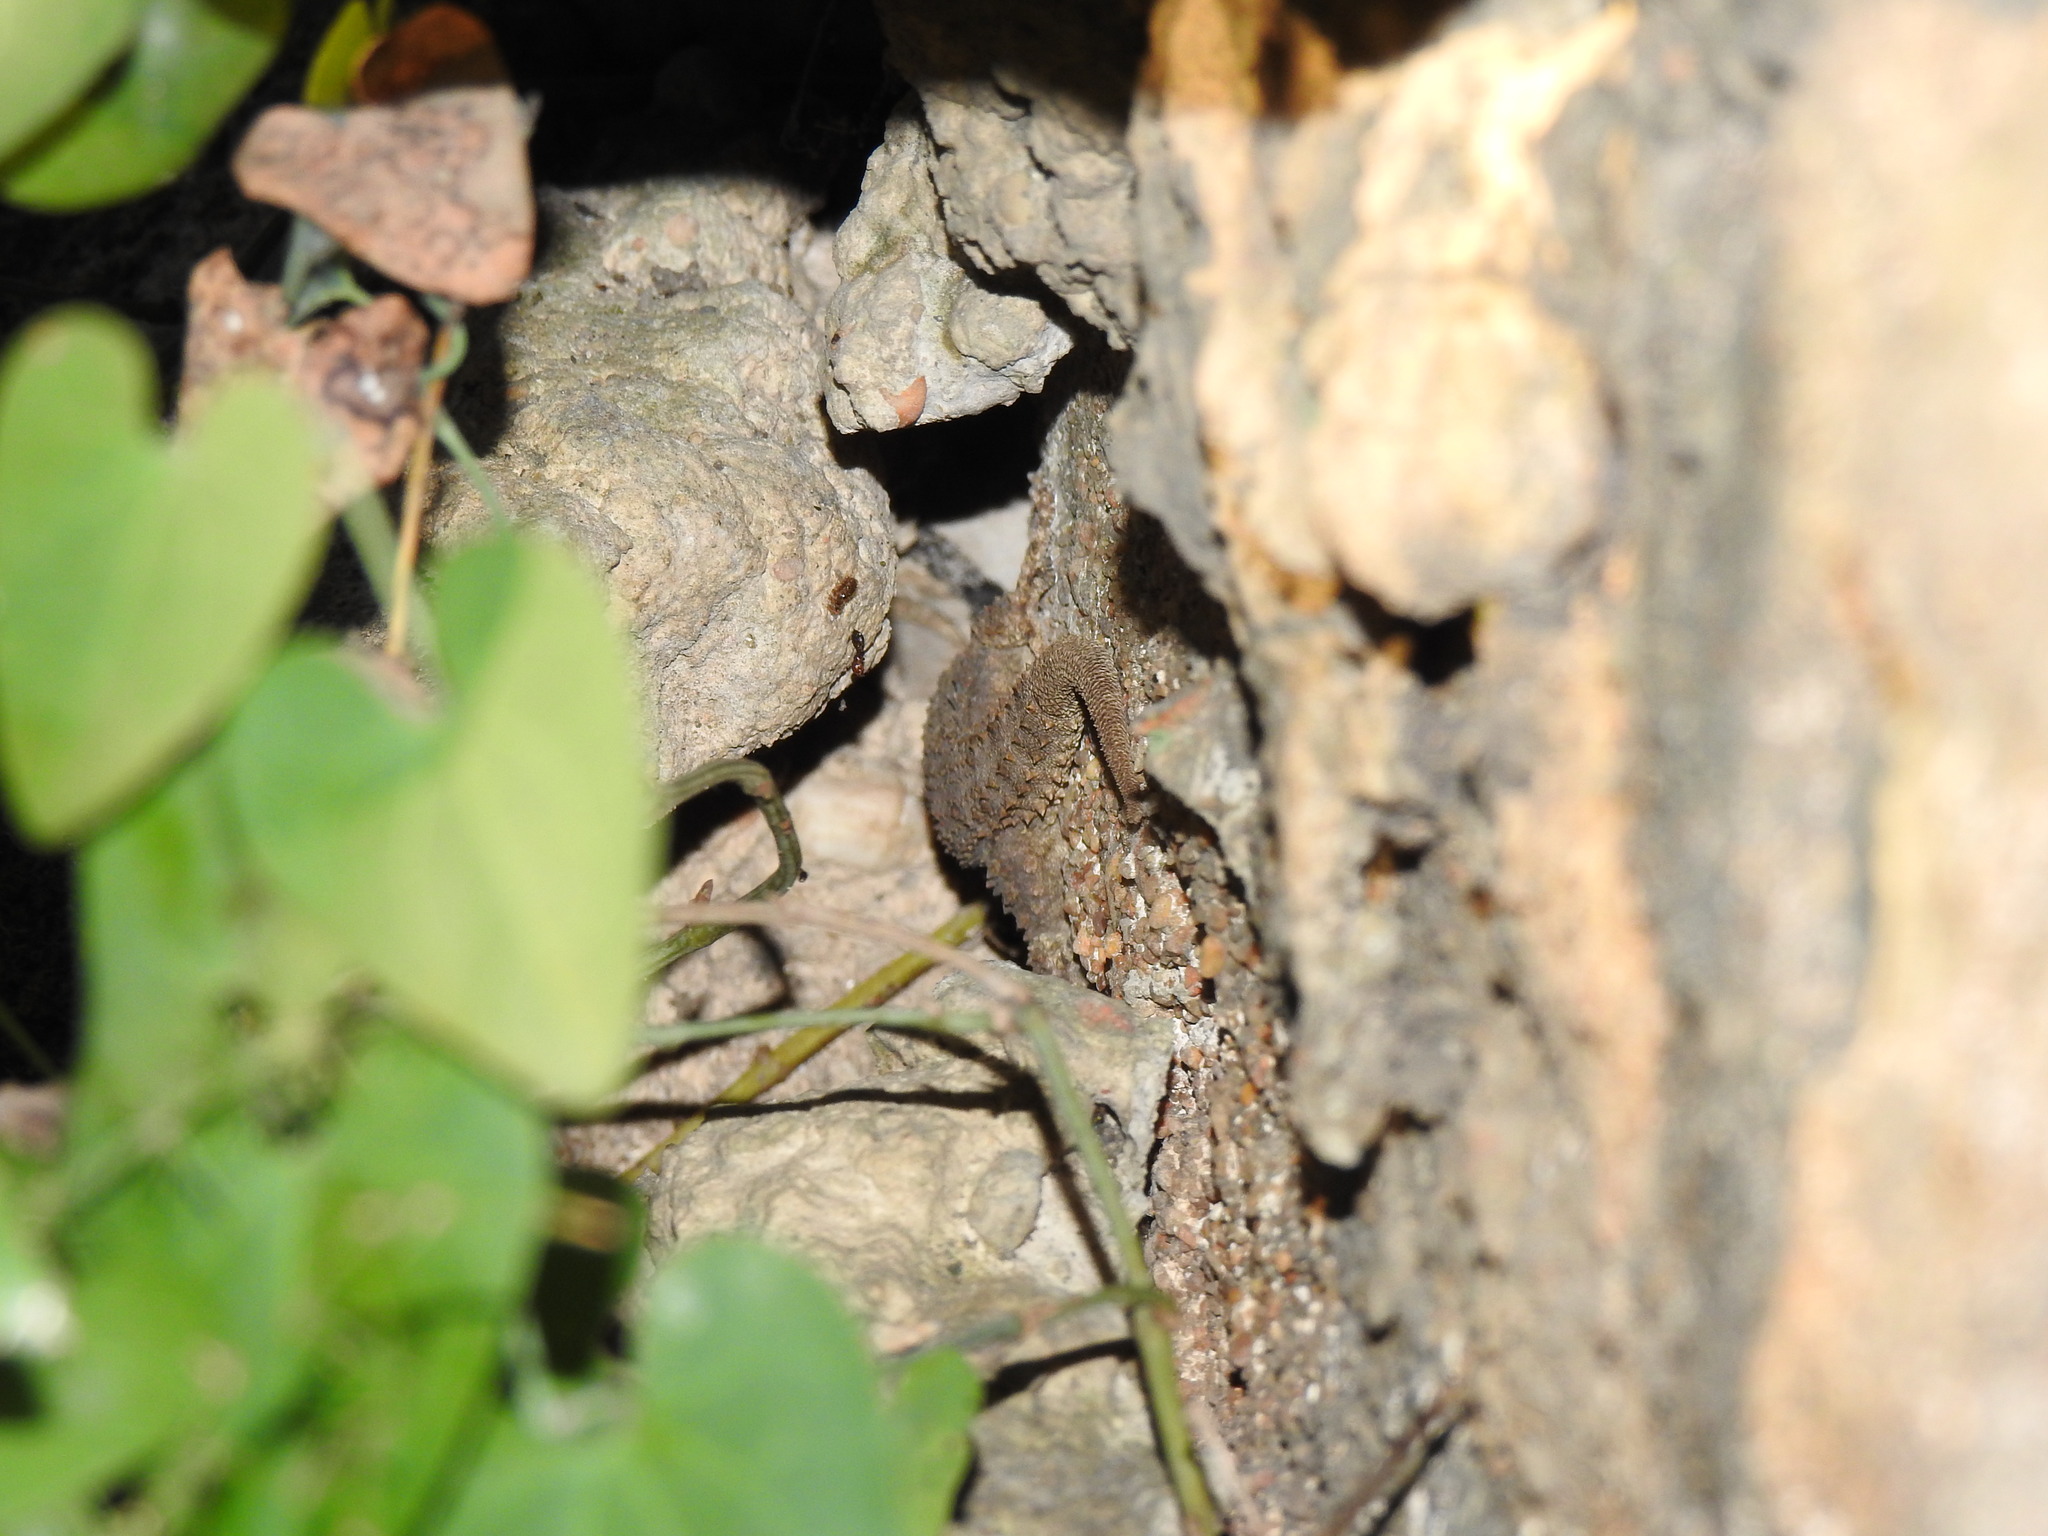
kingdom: Animalia
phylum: Chordata
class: Squamata
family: Phyllodactylidae
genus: Tarentola
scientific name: Tarentola mauritanica
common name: Moorish gecko
